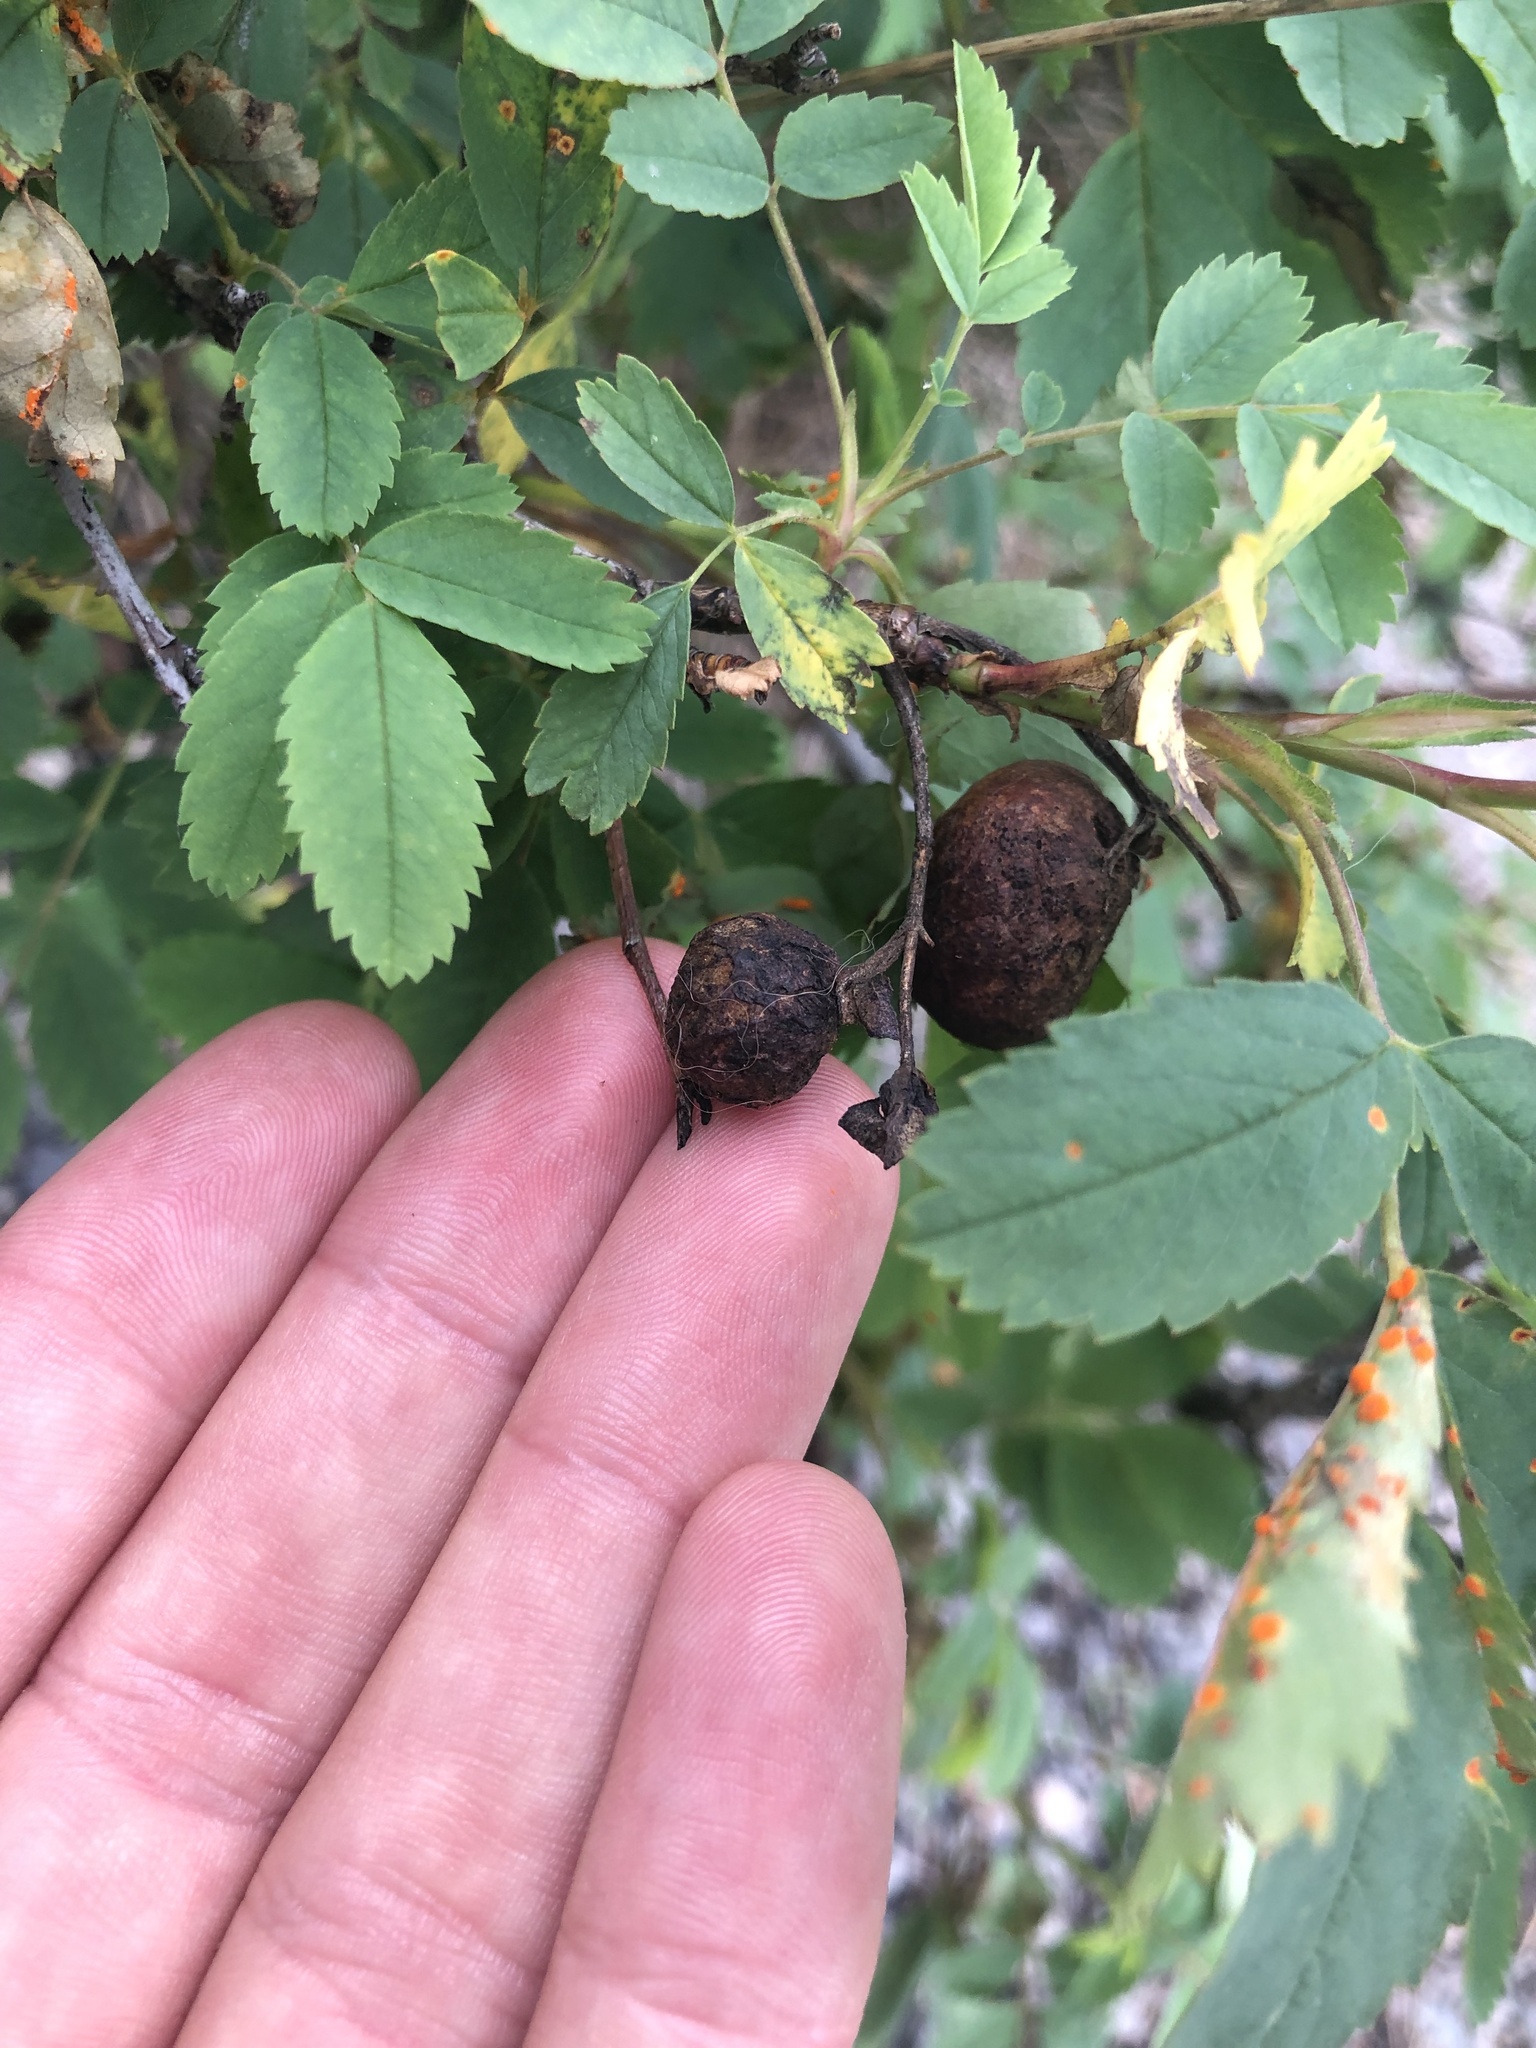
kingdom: Animalia
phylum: Arthropoda
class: Insecta
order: Hymenoptera
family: Cynipidae
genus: Diplolepis
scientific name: Diplolepis variabilis
